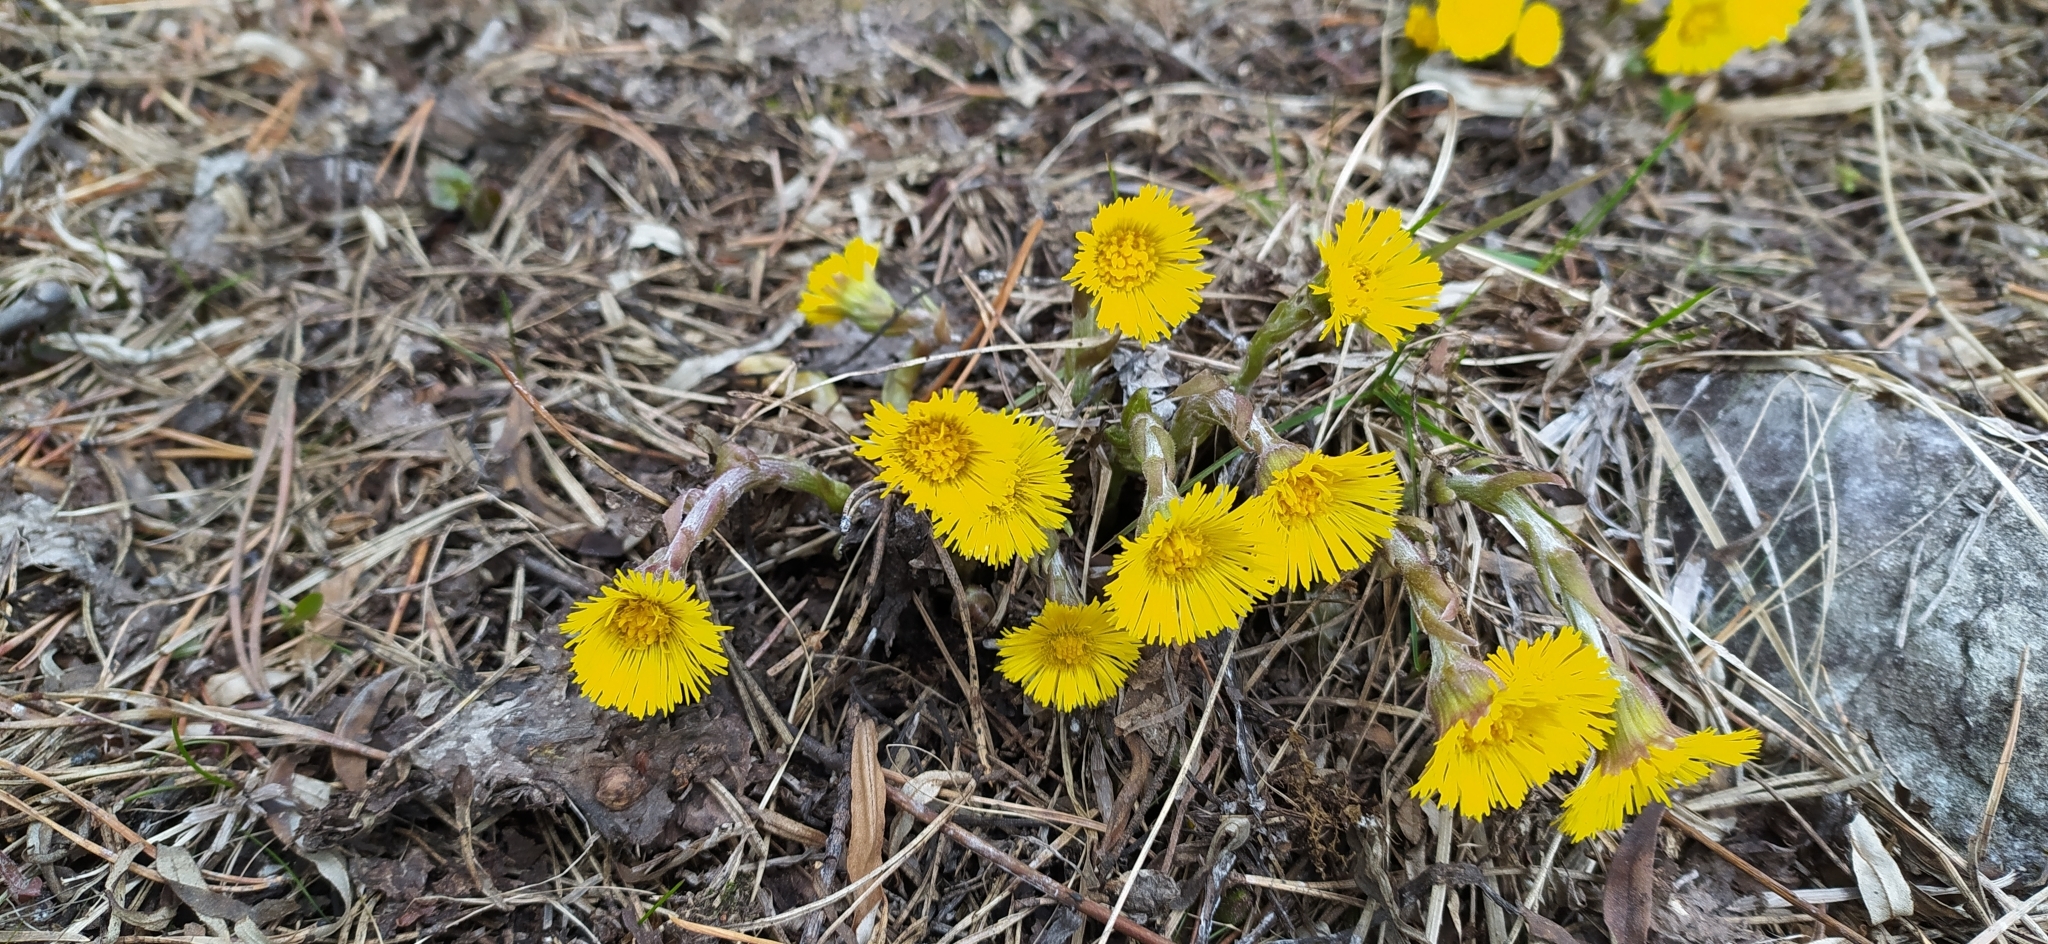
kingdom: Plantae
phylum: Tracheophyta
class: Magnoliopsida
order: Asterales
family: Asteraceae
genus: Tussilago
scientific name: Tussilago farfara
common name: Coltsfoot
